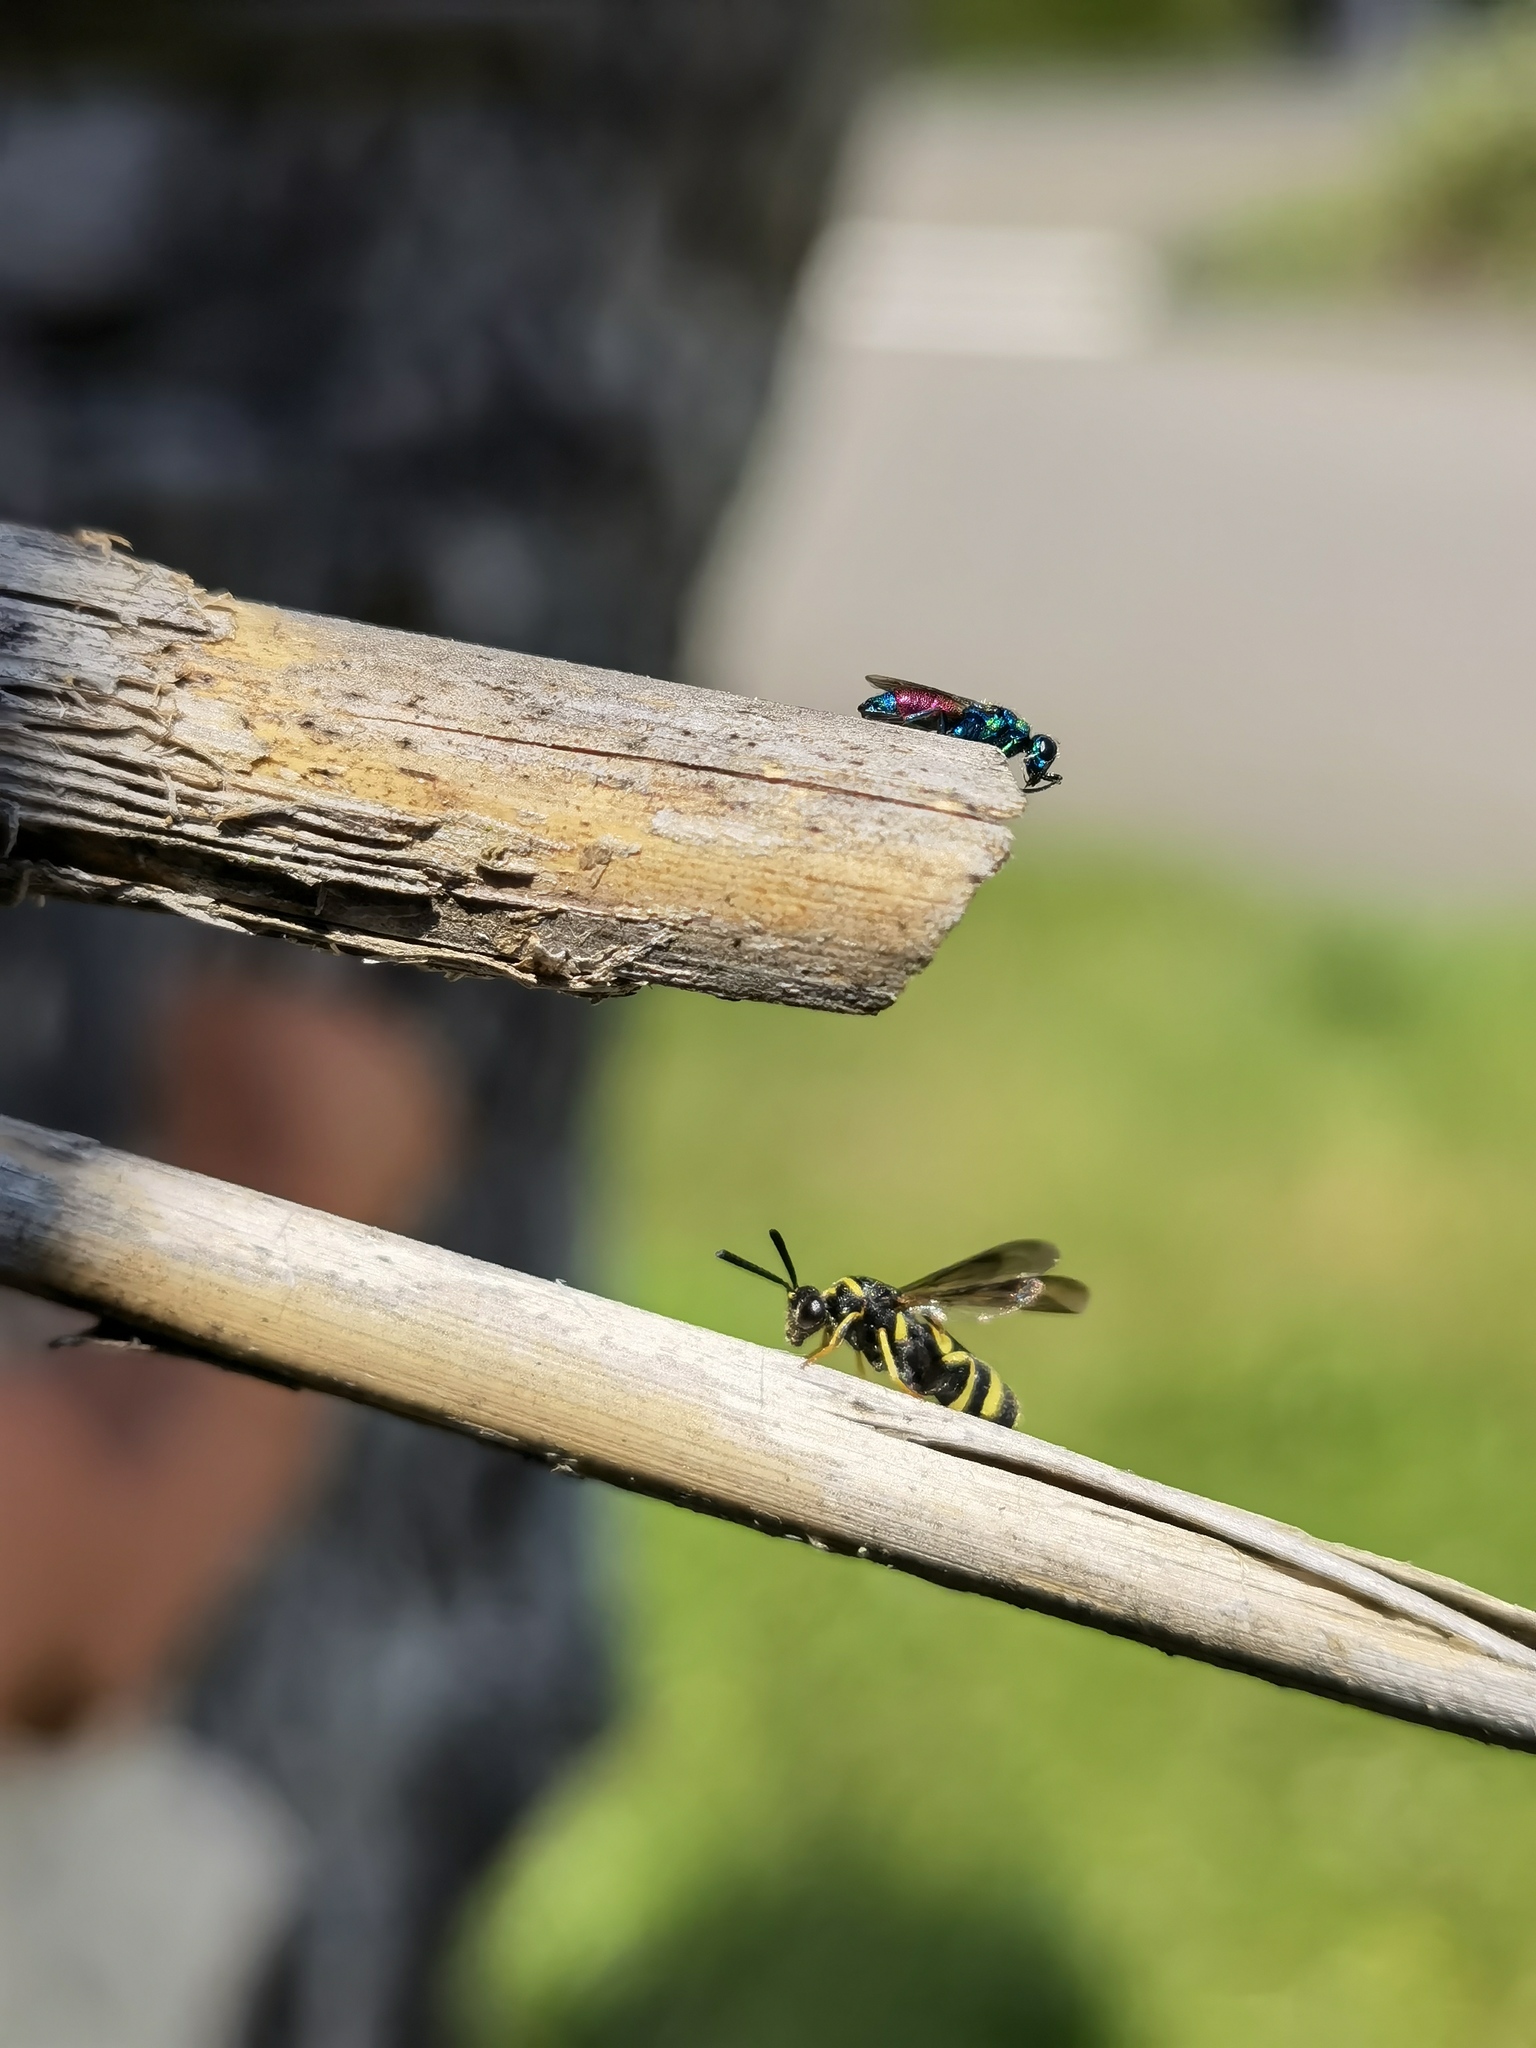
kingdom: Animalia
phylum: Arthropoda
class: Insecta
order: Hymenoptera
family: Chrysididae
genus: Chrysis
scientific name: Chrysis
